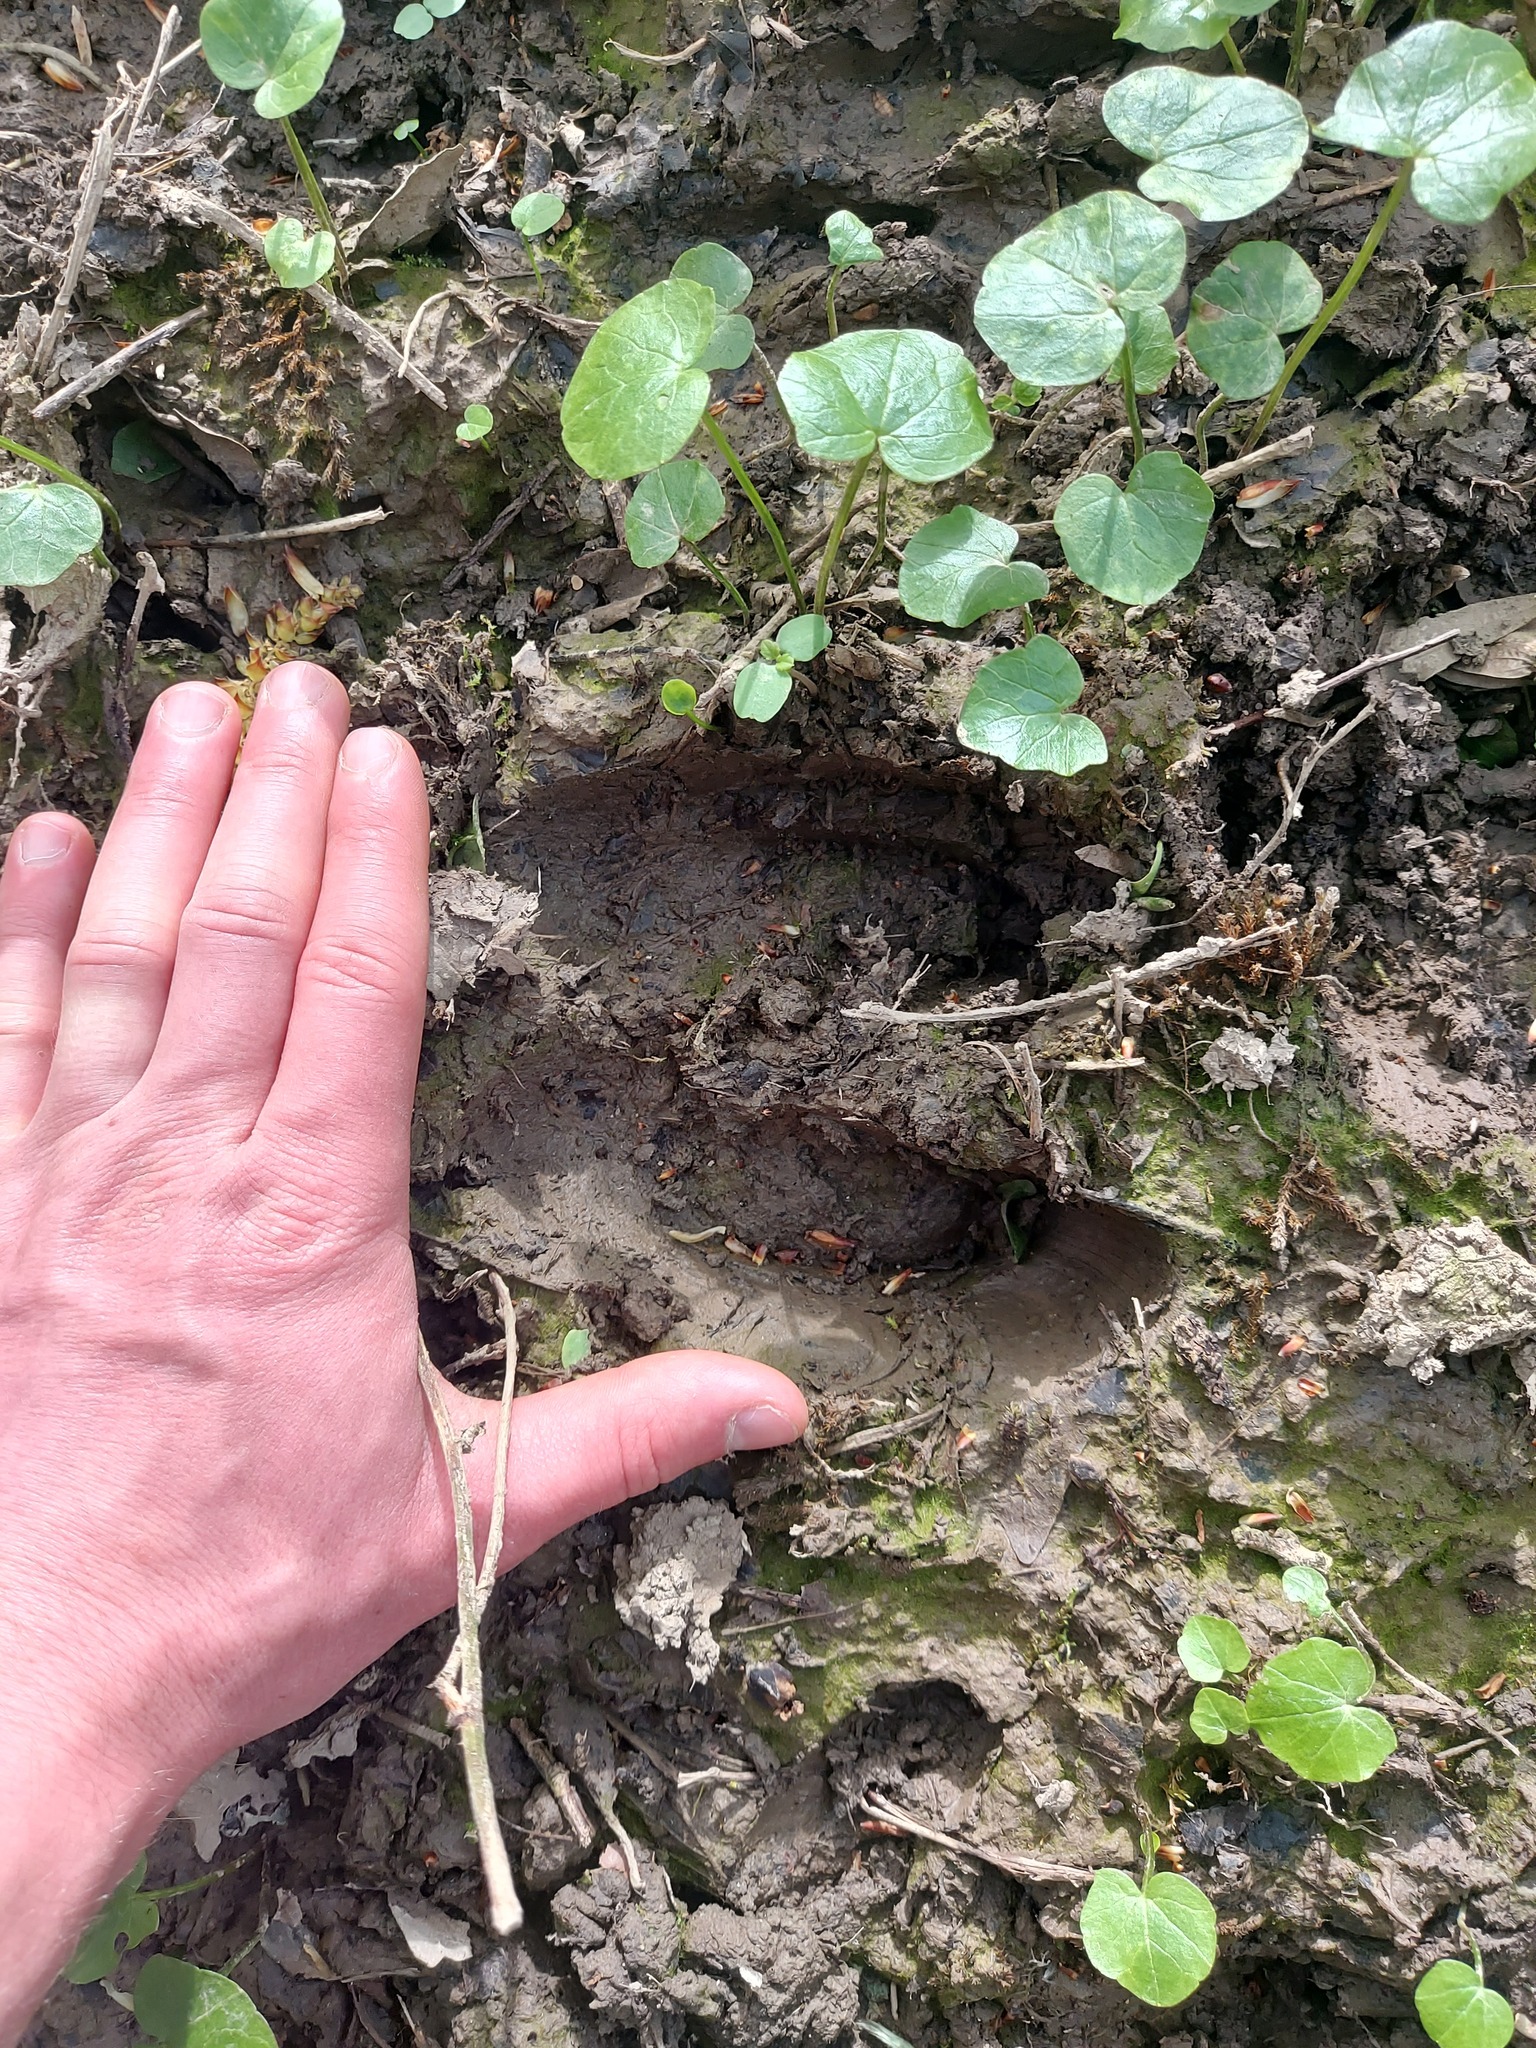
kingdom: Animalia
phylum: Chordata
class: Mammalia
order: Artiodactyla
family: Suidae
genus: Sus
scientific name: Sus scrofa
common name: Wild boar
